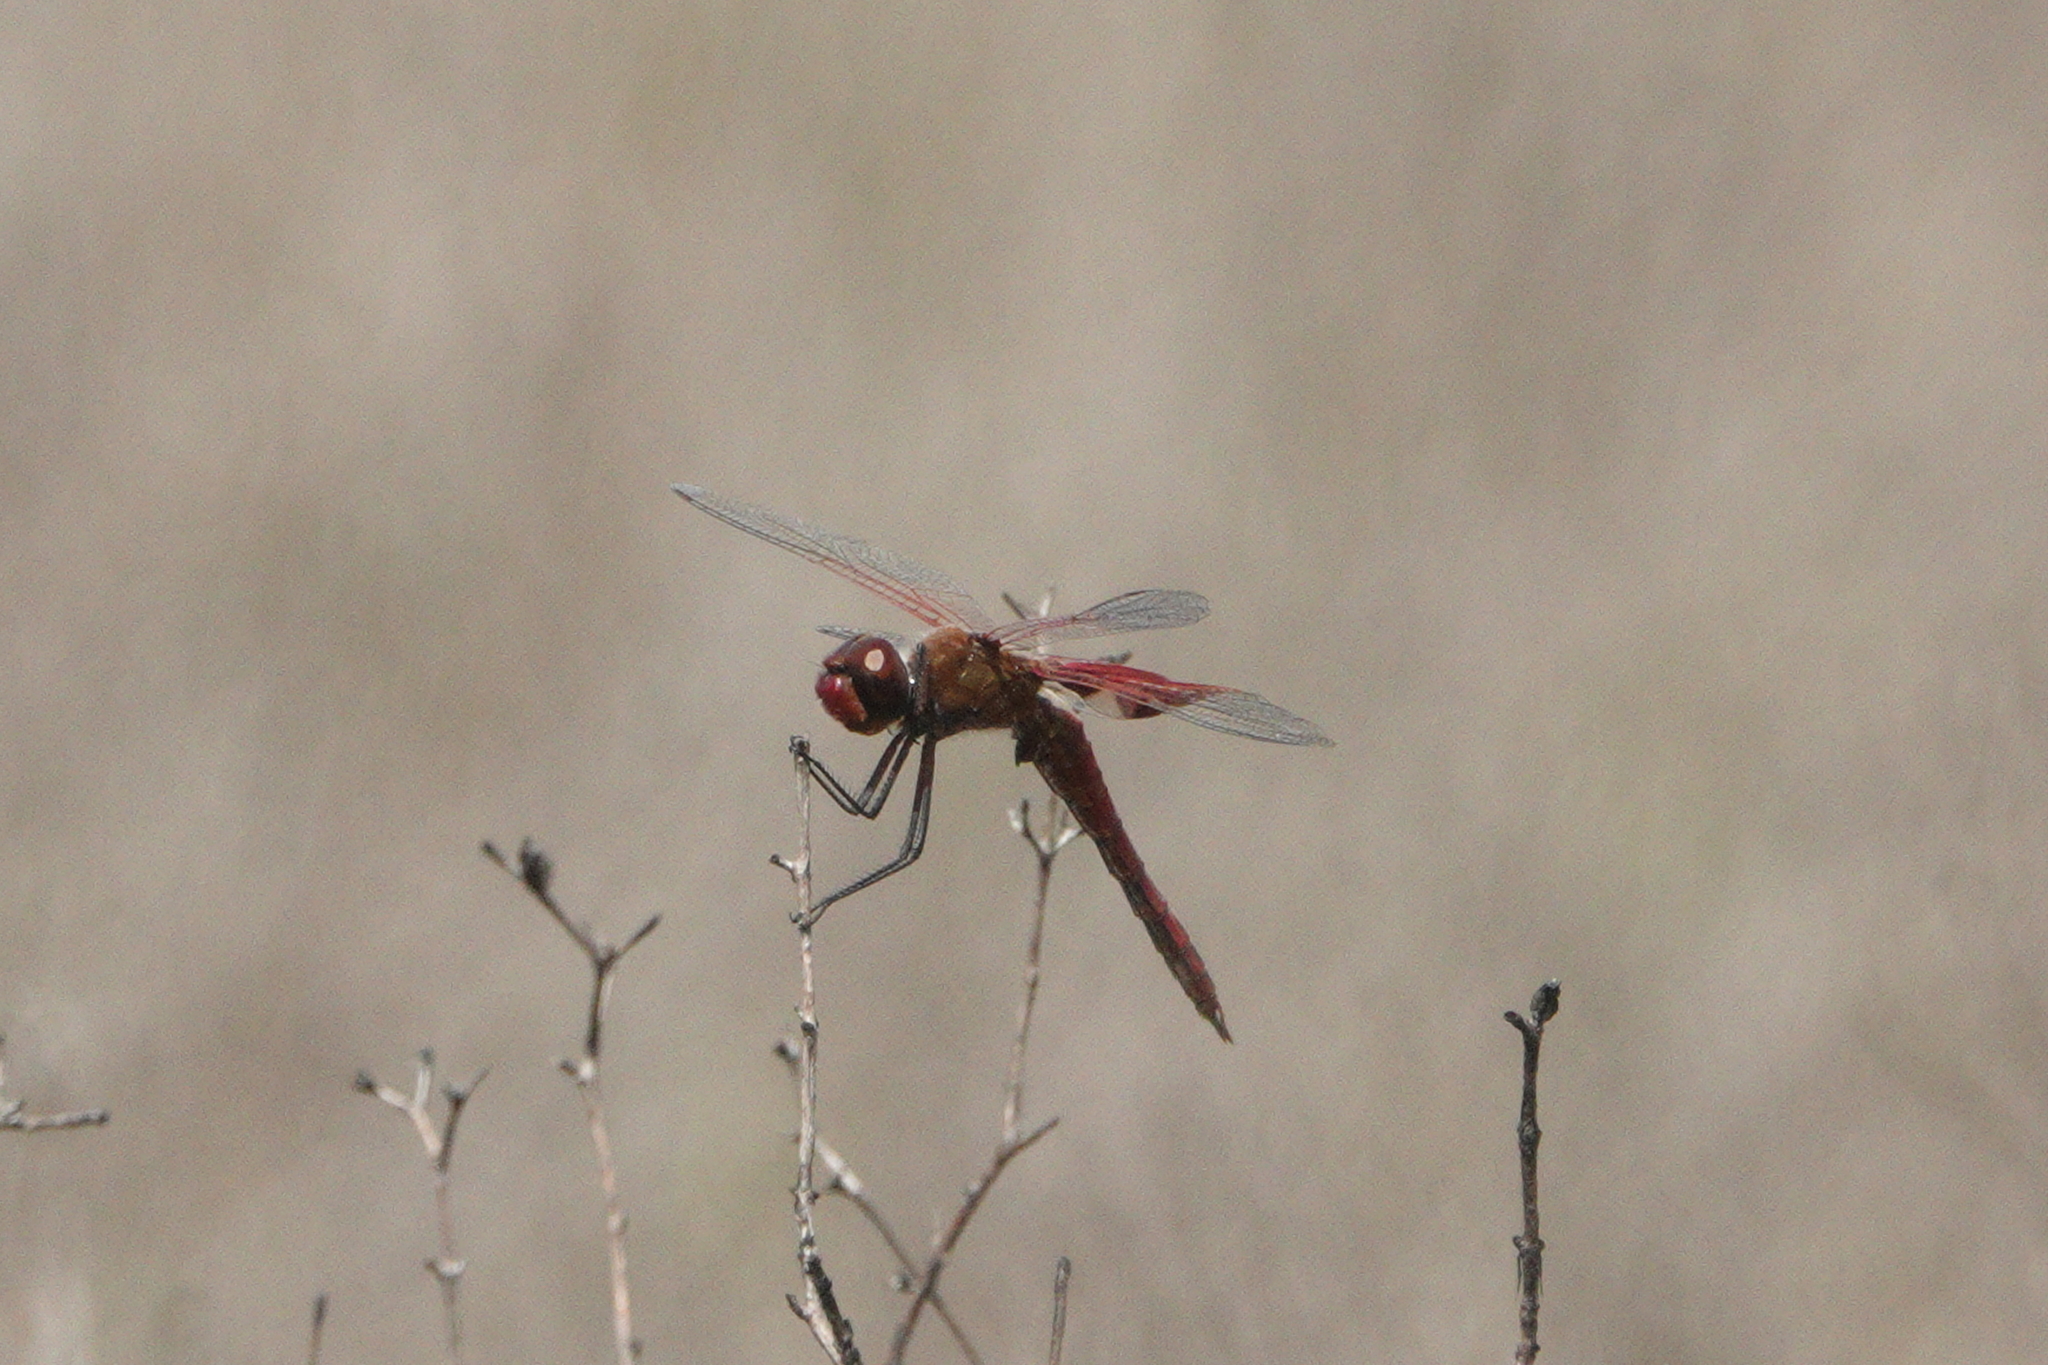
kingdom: Animalia
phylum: Arthropoda
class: Insecta
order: Odonata
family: Libellulidae
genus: Tramea
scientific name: Tramea onusta
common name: Red saddlebags
